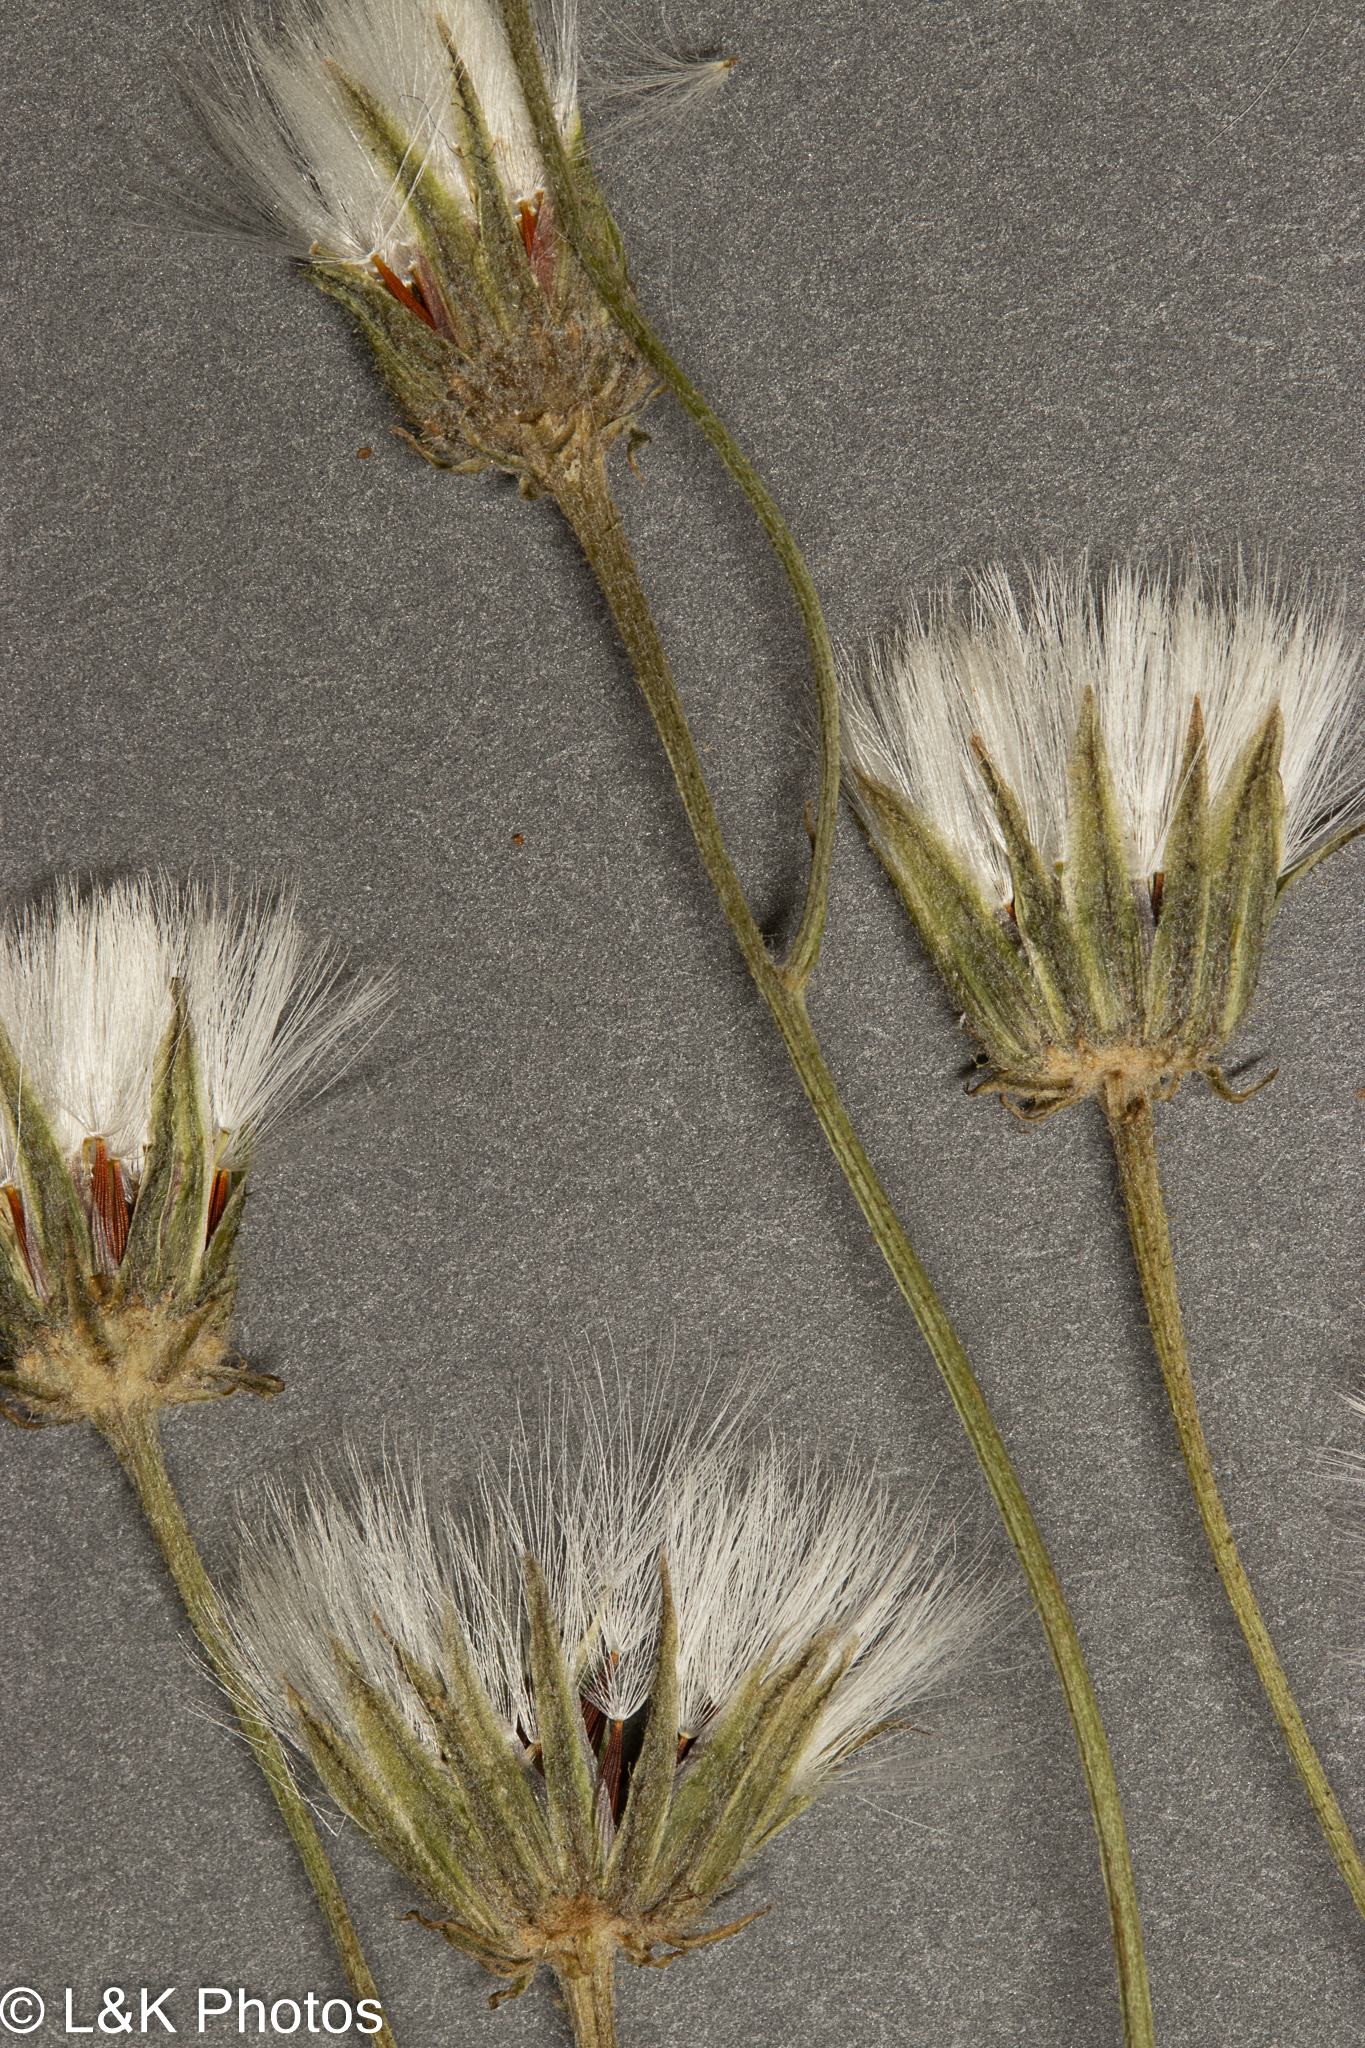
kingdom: Plantae
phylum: Tracheophyta
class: Magnoliopsida
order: Asterales
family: Asteraceae
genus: Crepis
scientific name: Crepis tectorum
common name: Narrow-leaved hawk's-beard
